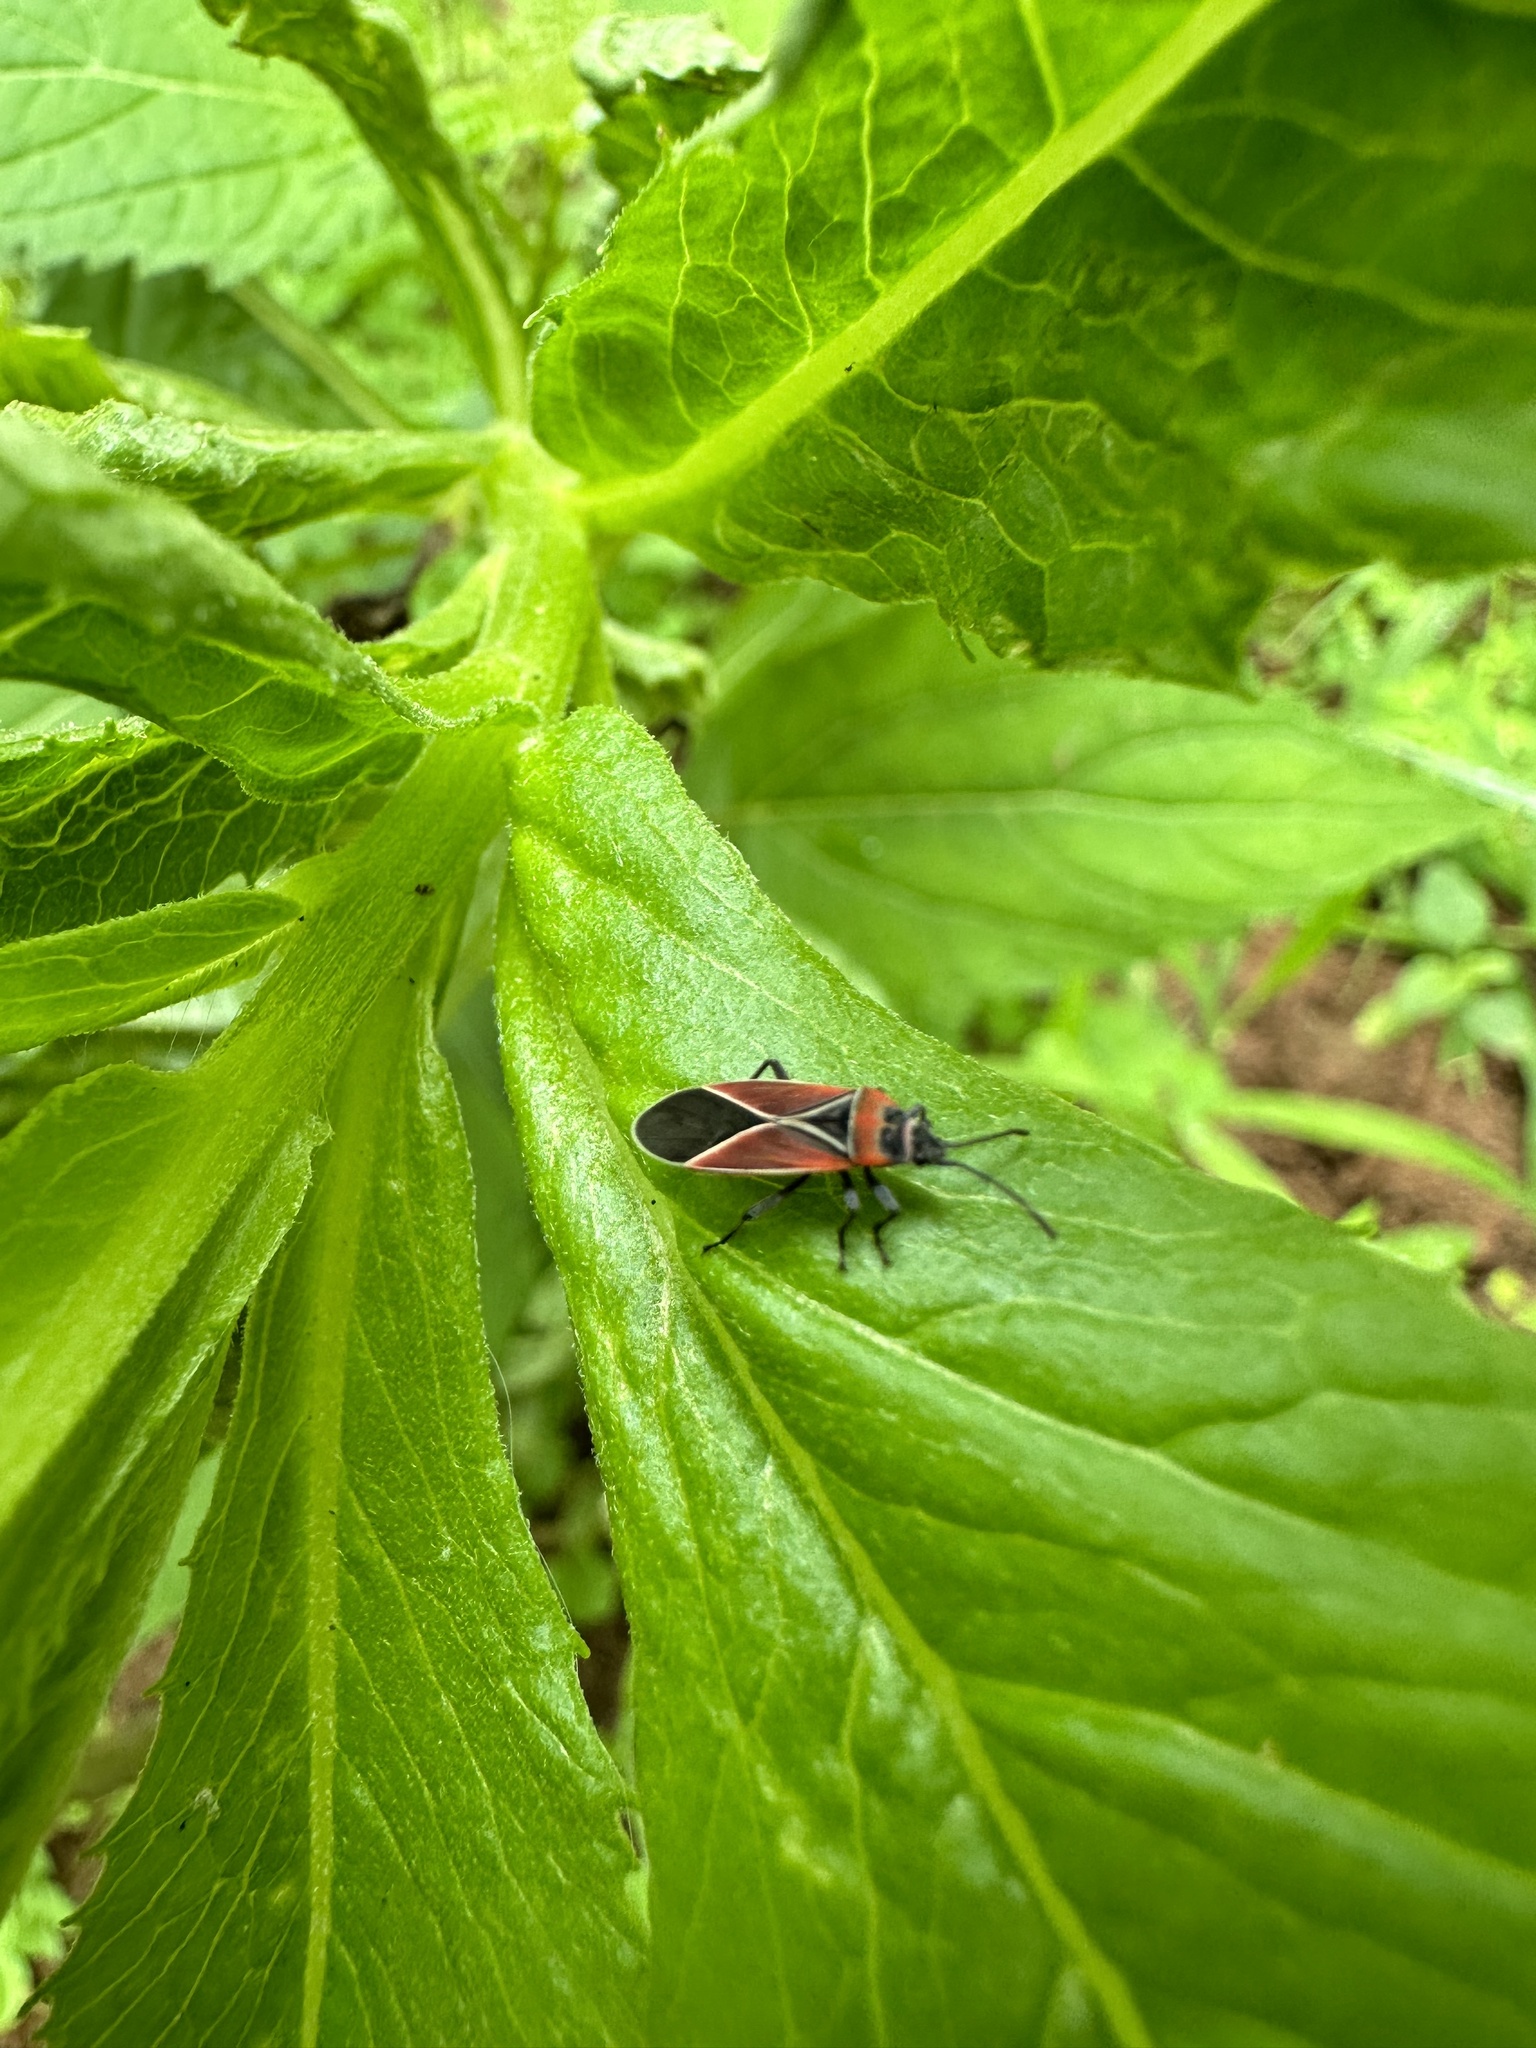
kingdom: Animalia
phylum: Arthropoda
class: Insecta
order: Hemiptera
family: Lygaeidae
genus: Neacoryphus
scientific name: Neacoryphus bicrucis
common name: Lygaeid bug
